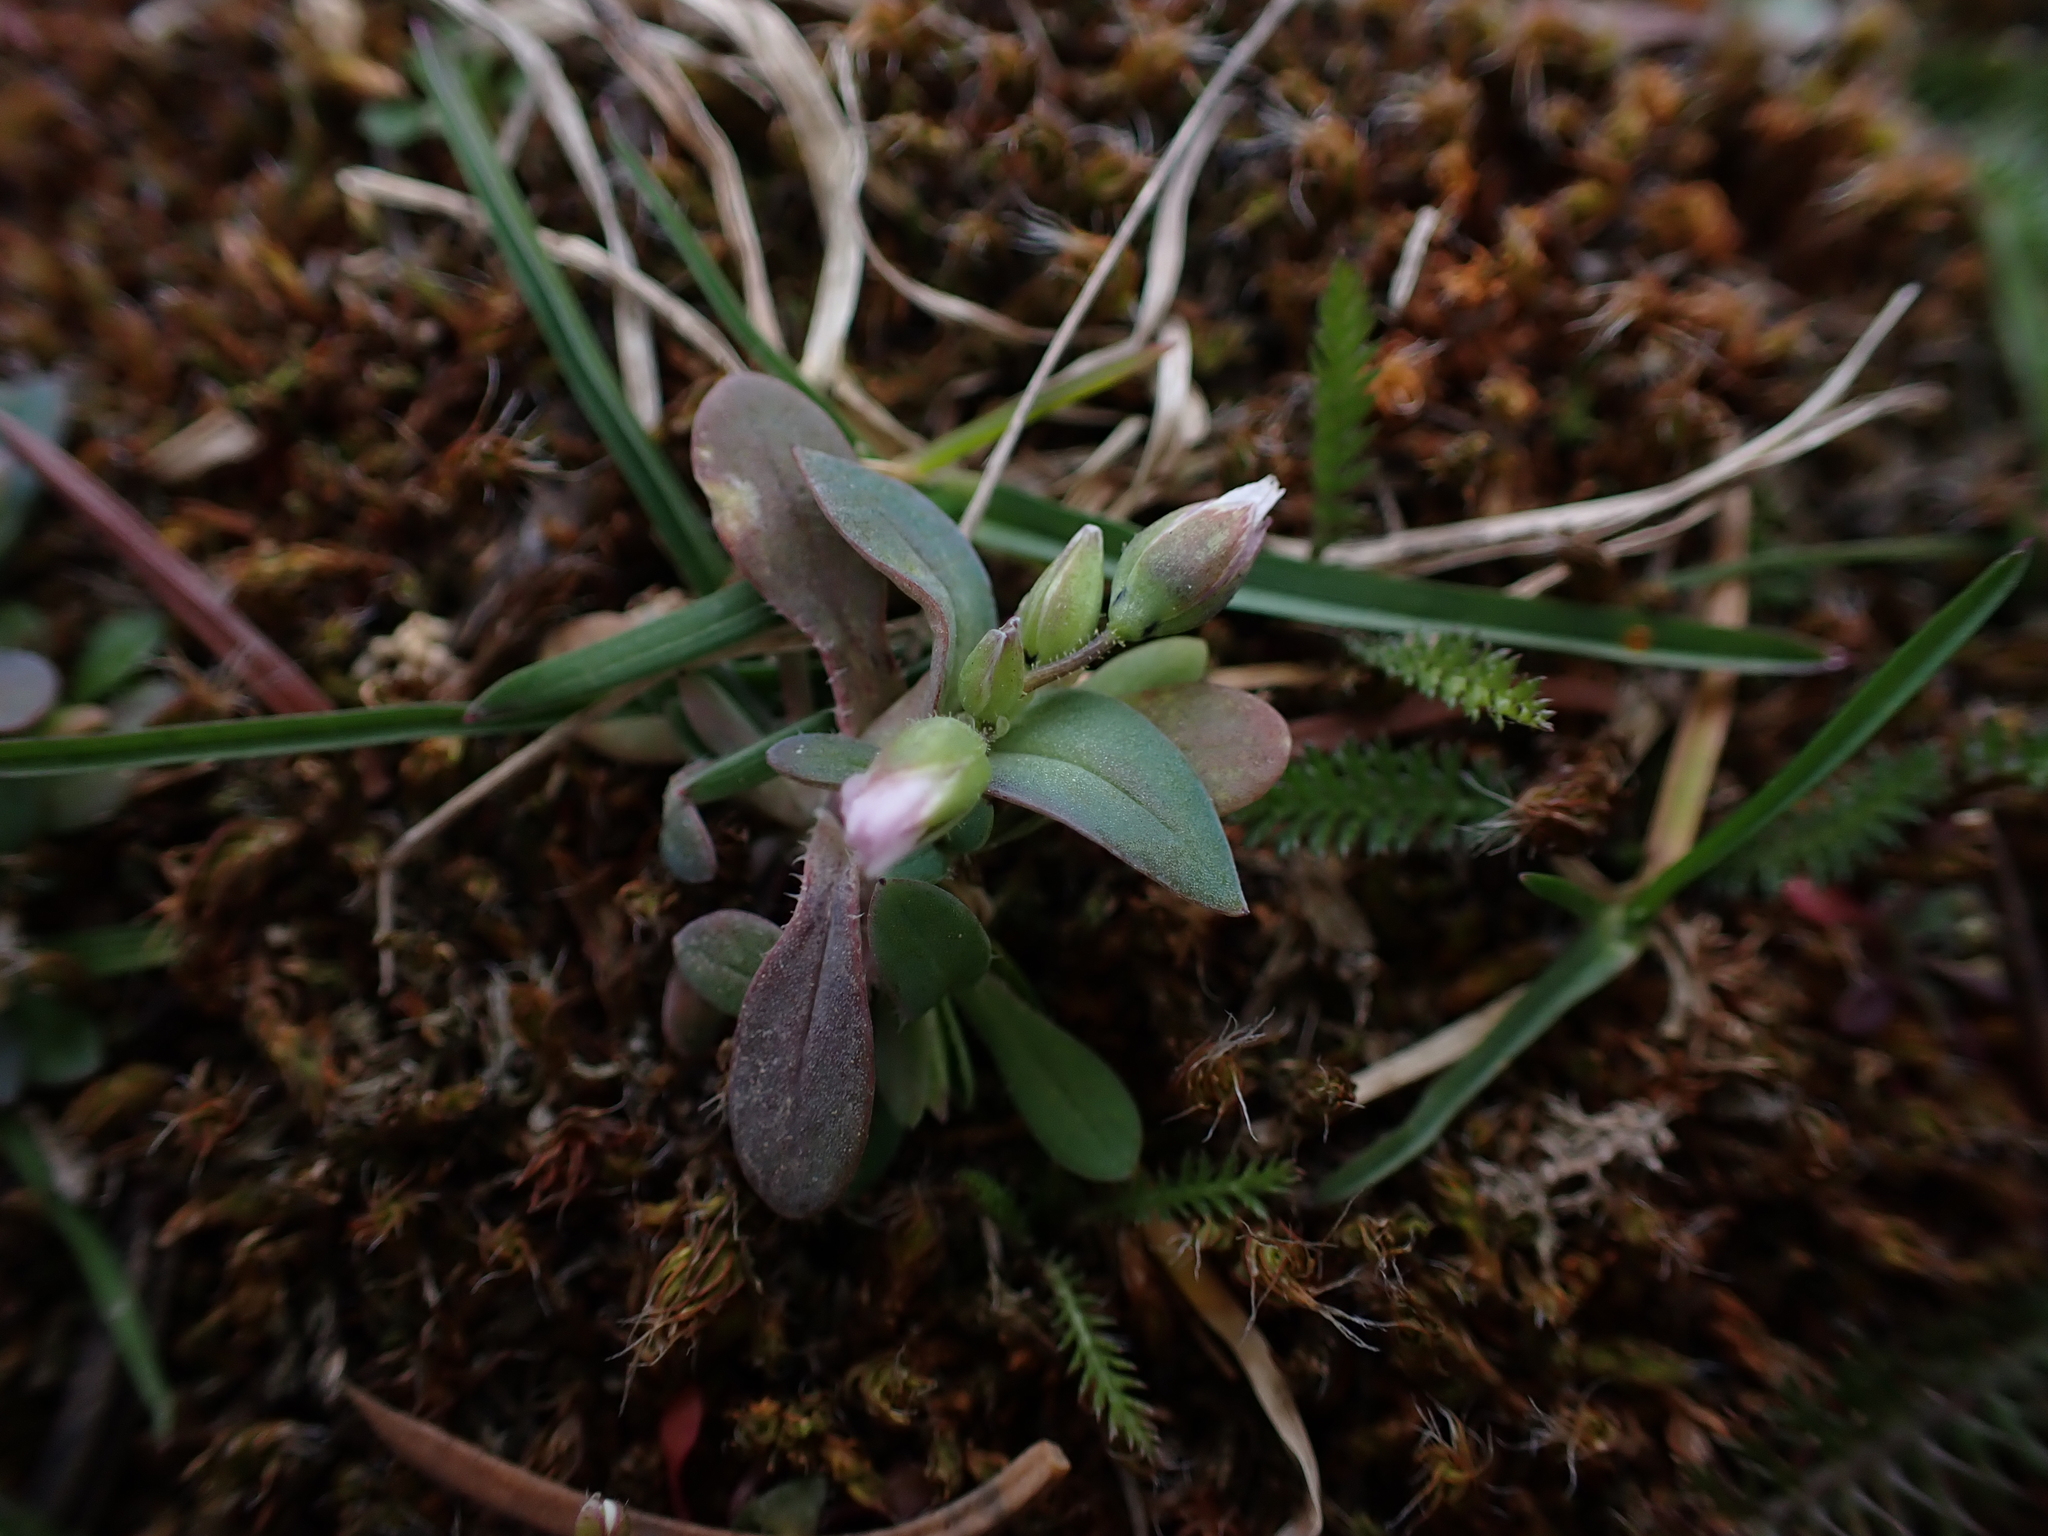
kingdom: Plantae
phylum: Tracheophyta
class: Magnoliopsida
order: Caryophyllales
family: Caryophyllaceae
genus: Holosteum
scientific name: Holosteum umbellatum
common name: Jagged chickweed
